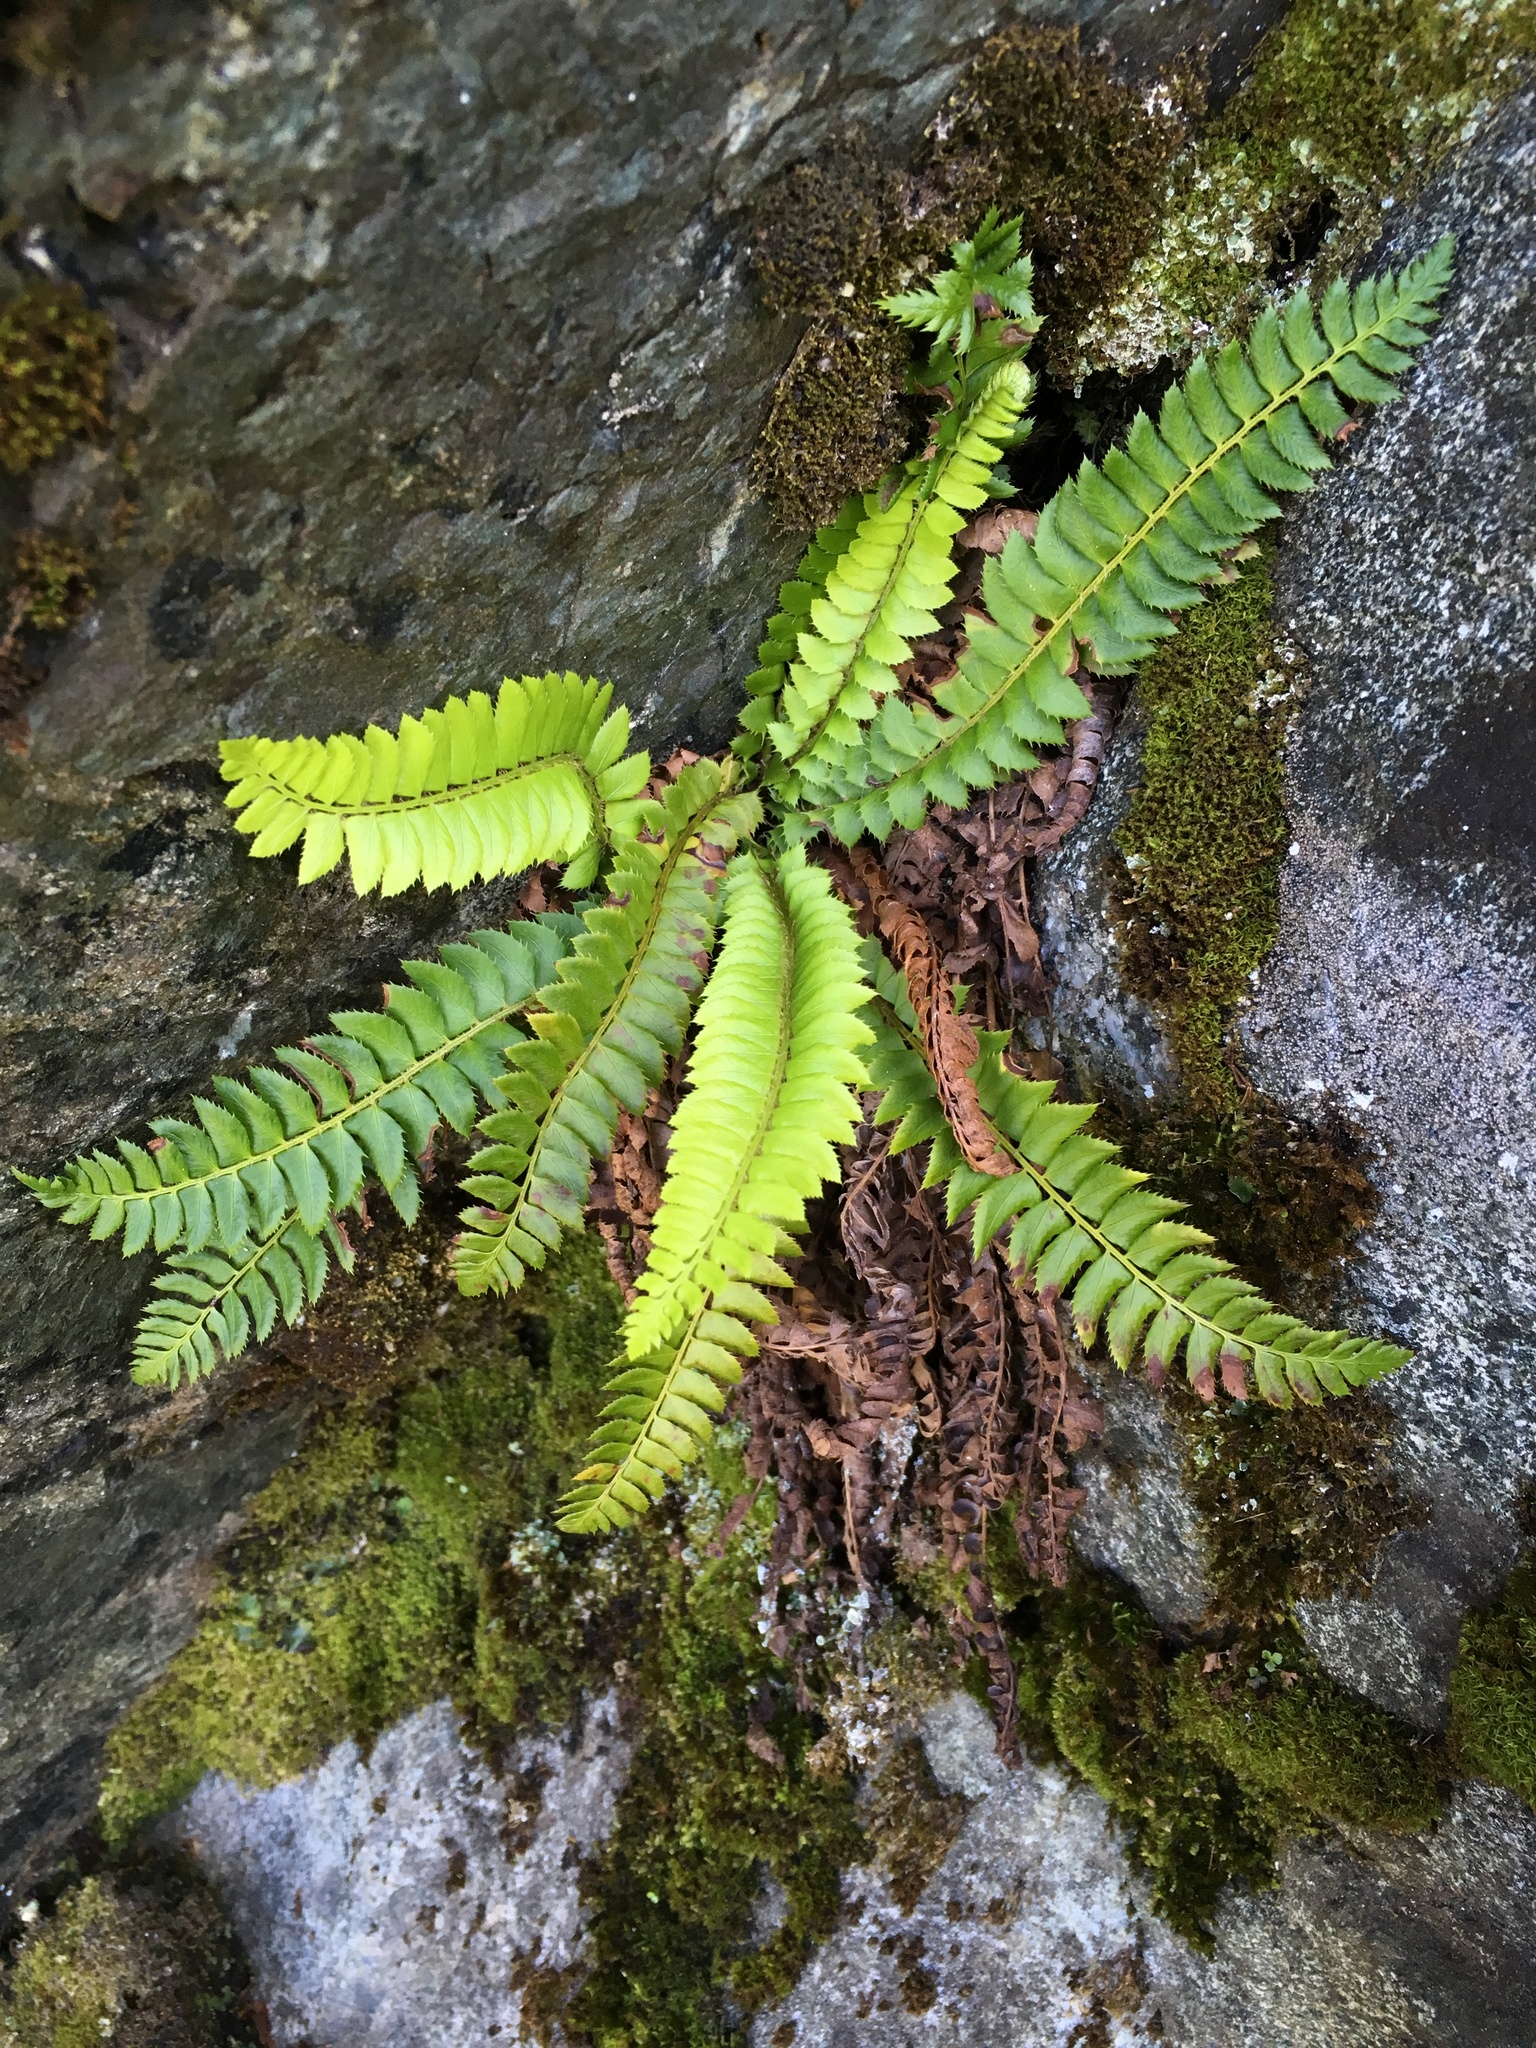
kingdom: Plantae
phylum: Tracheophyta
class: Polypodiopsida
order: Polypodiales
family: Dryopteridaceae
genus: Polystichum
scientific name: Polystichum lonchitis
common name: Holly fern
